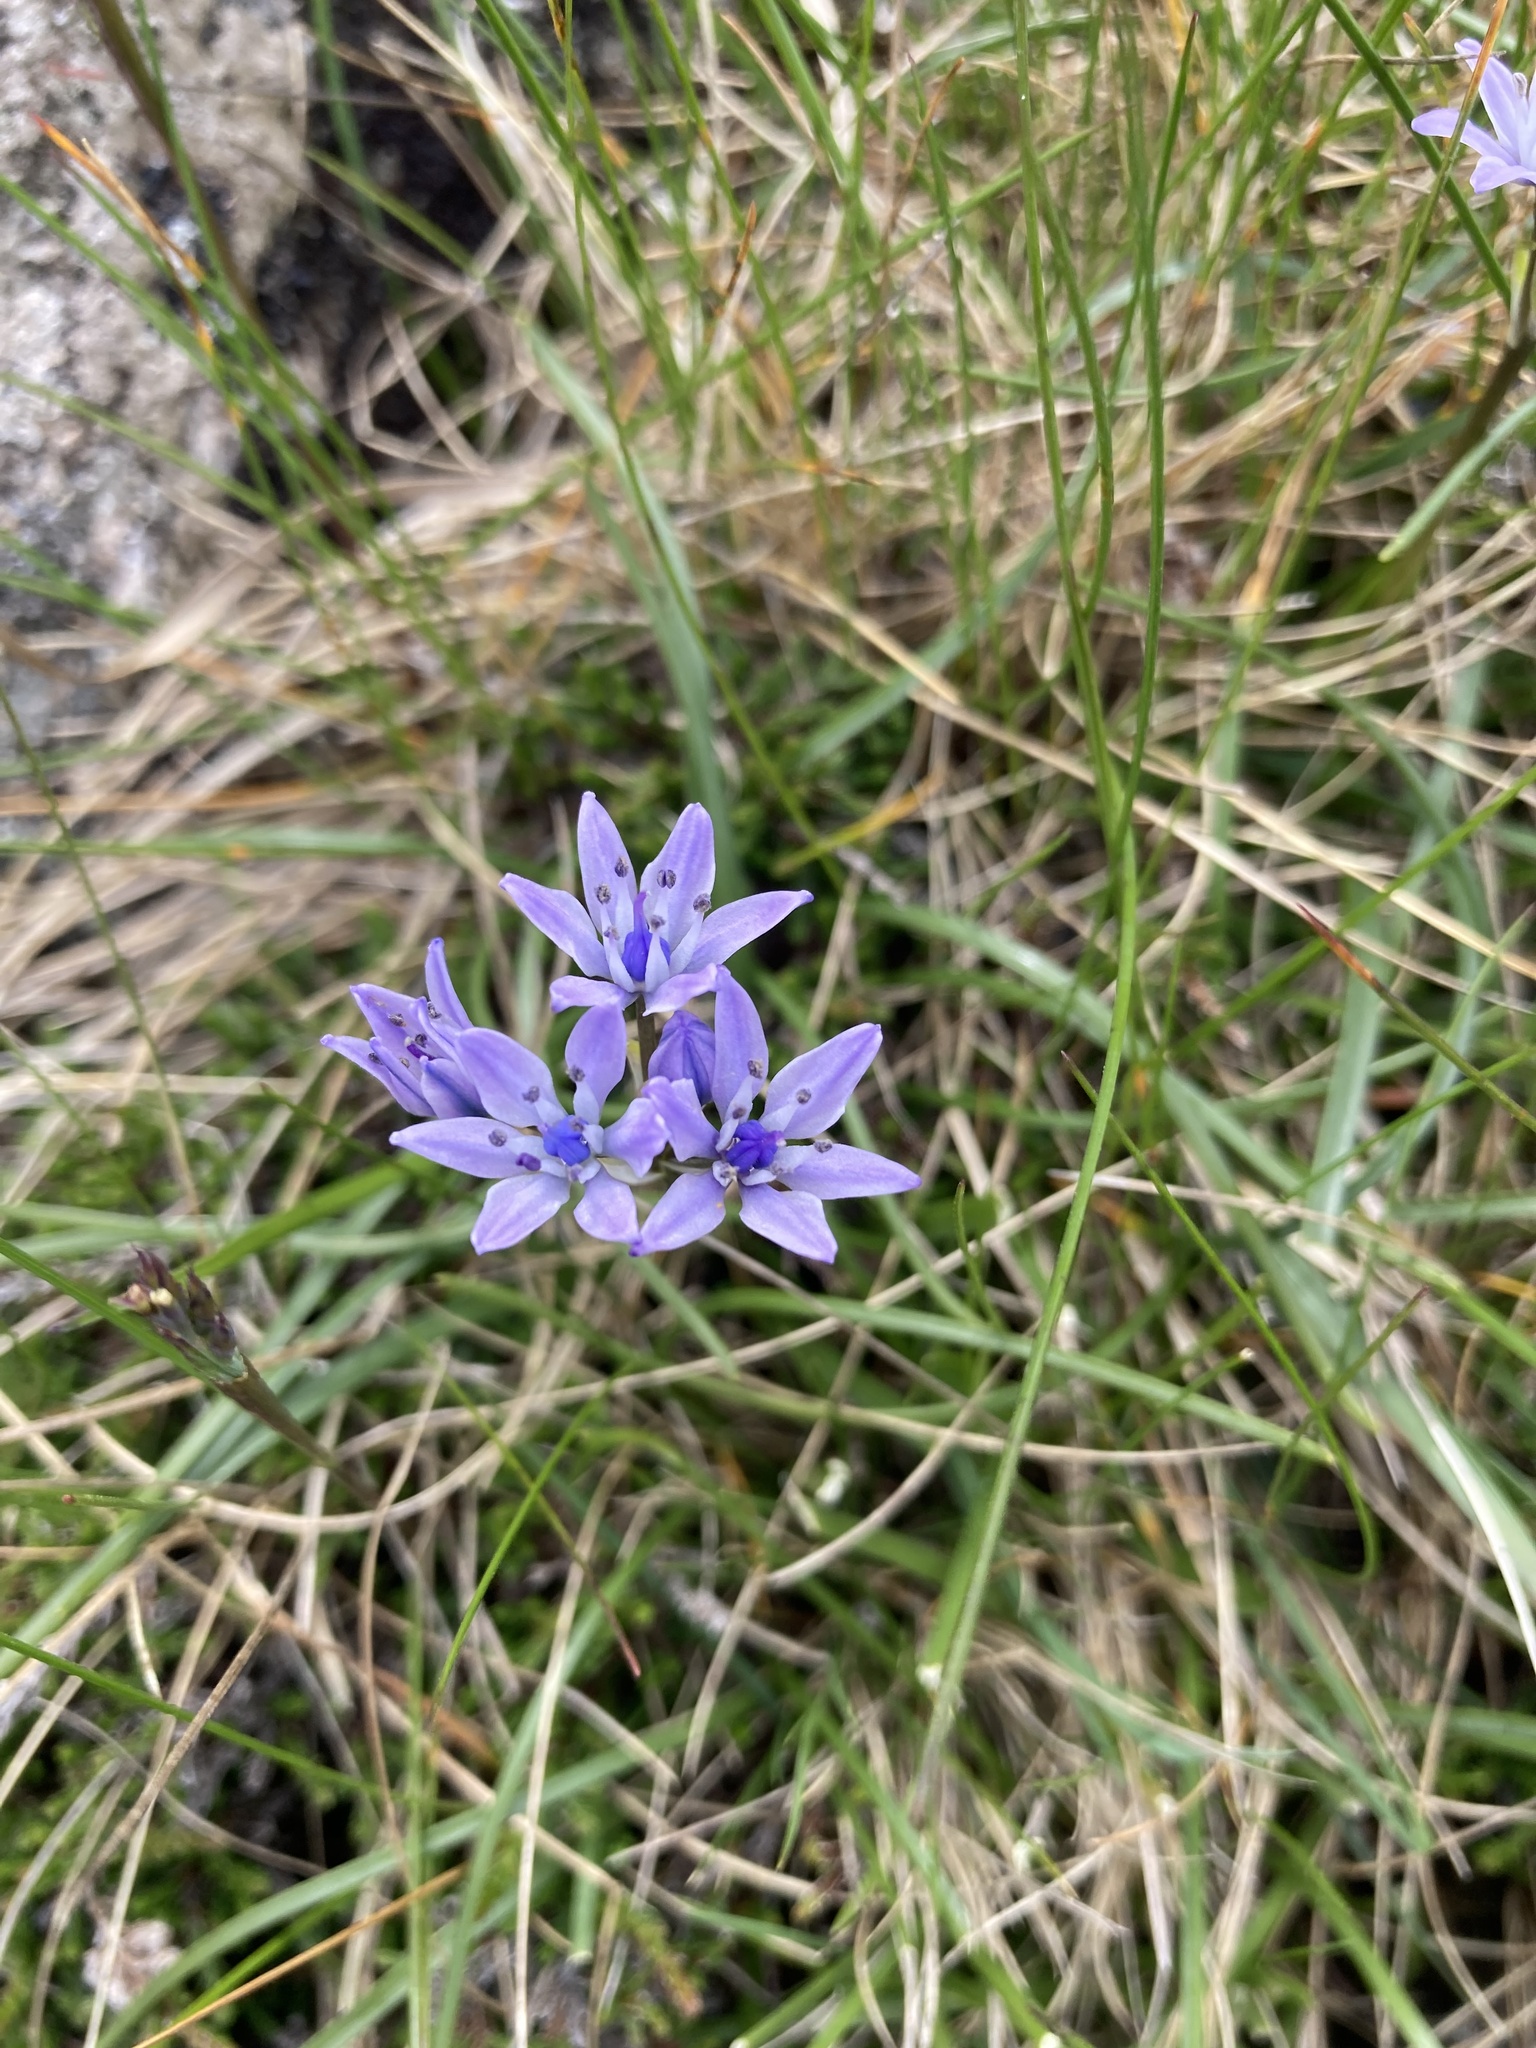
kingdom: Plantae
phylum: Tracheophyta
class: Liliopsida
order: Asparagales
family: Asparagaceae
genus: Scilla
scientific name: Scilla verna
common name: Spring squill
